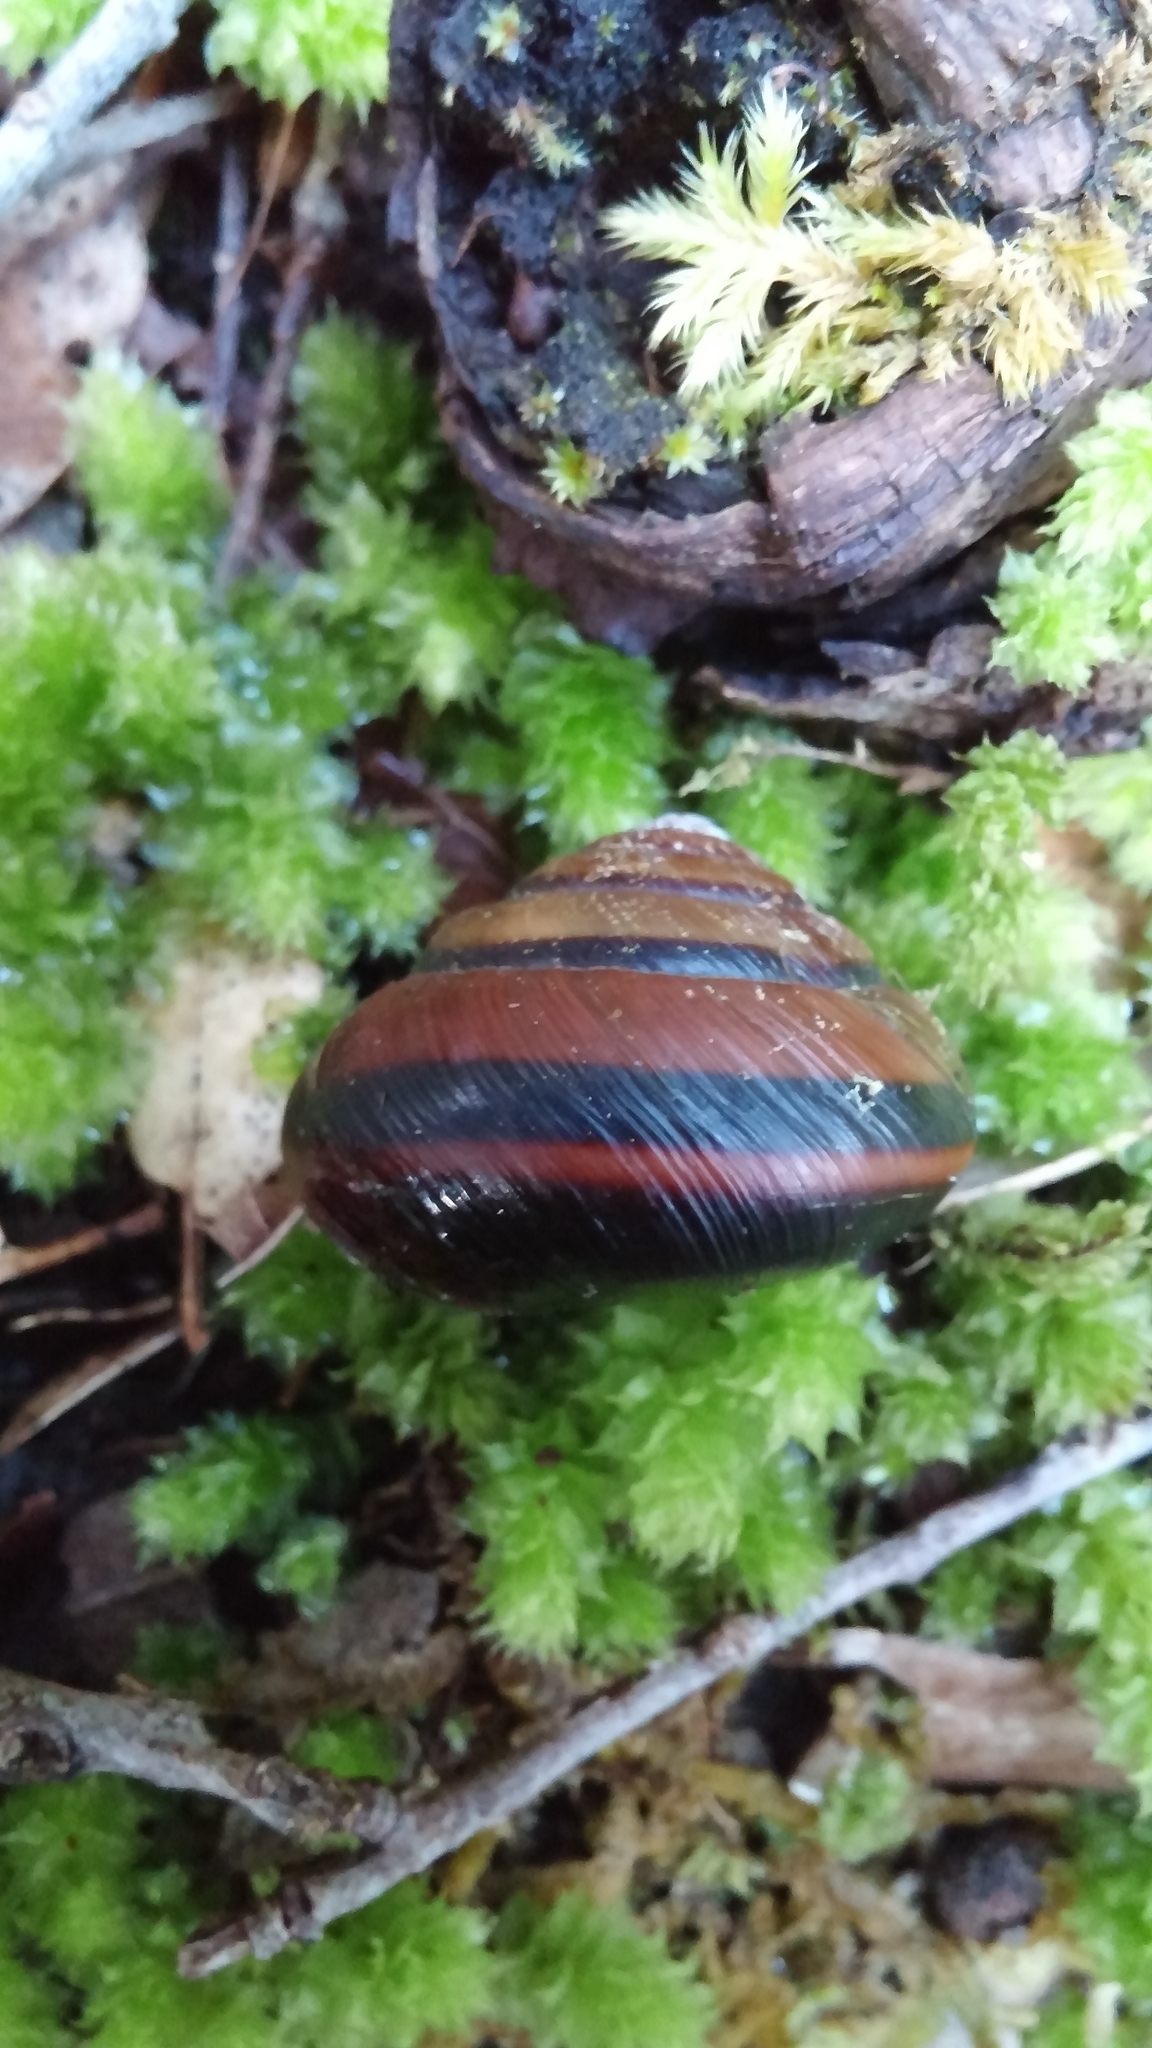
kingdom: Animalia
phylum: Mollusca
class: Gastropoda
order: Stylommatophora
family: Xanthonychidae
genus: Monadenia
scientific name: Monadenia fidelis
